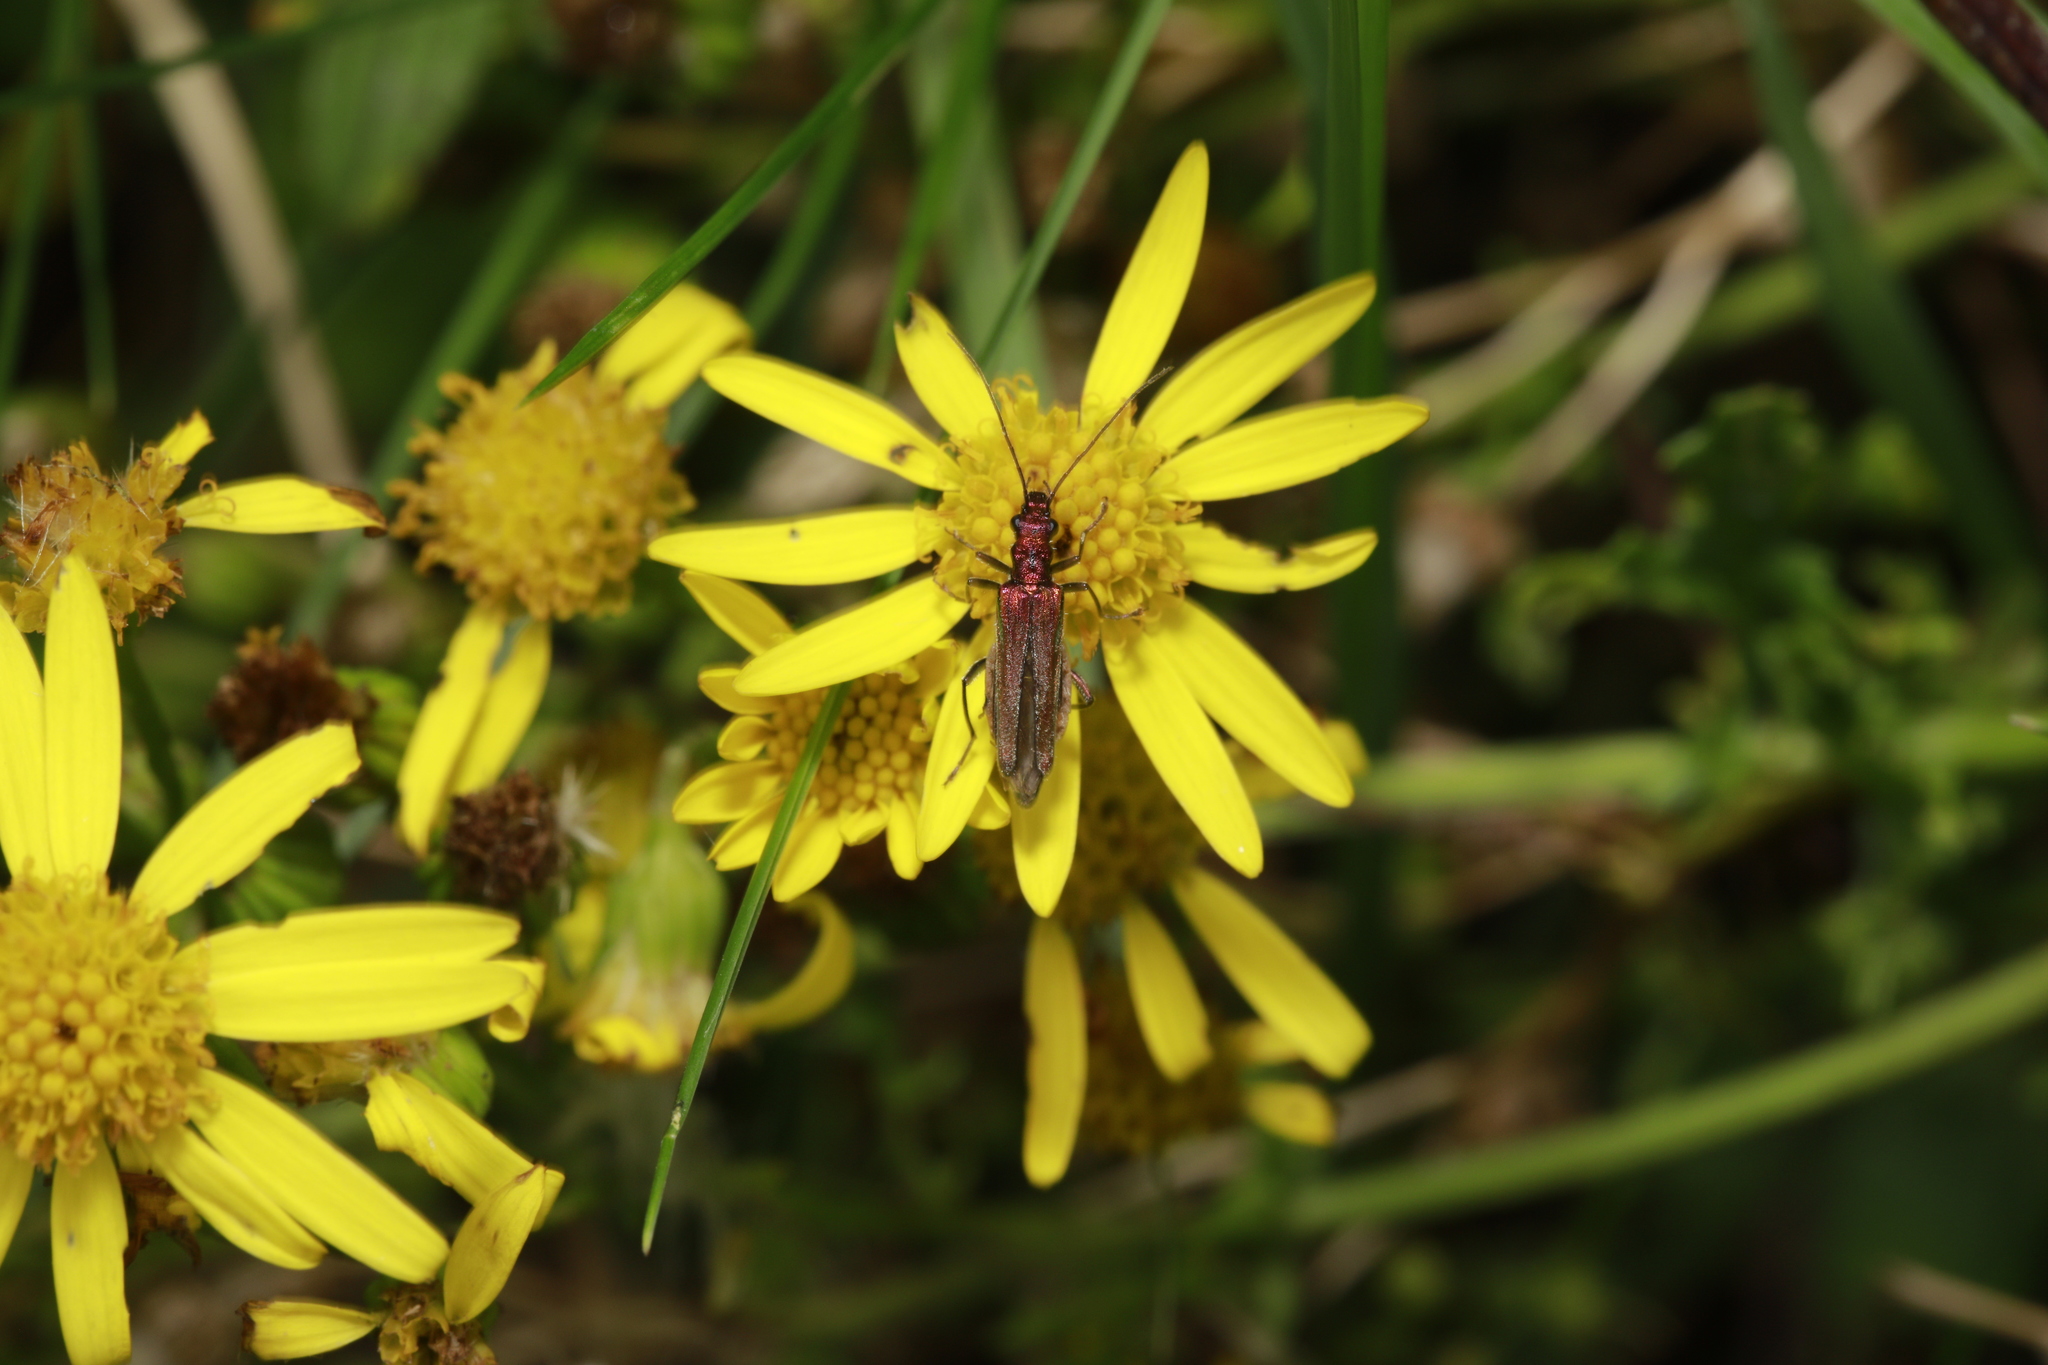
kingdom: Animalia
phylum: Arthropoda
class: Insecta
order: Coleoptera
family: Oedemeridae
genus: Oedemera
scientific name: Oedemera nobilis
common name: Swollen-thighed beetle
